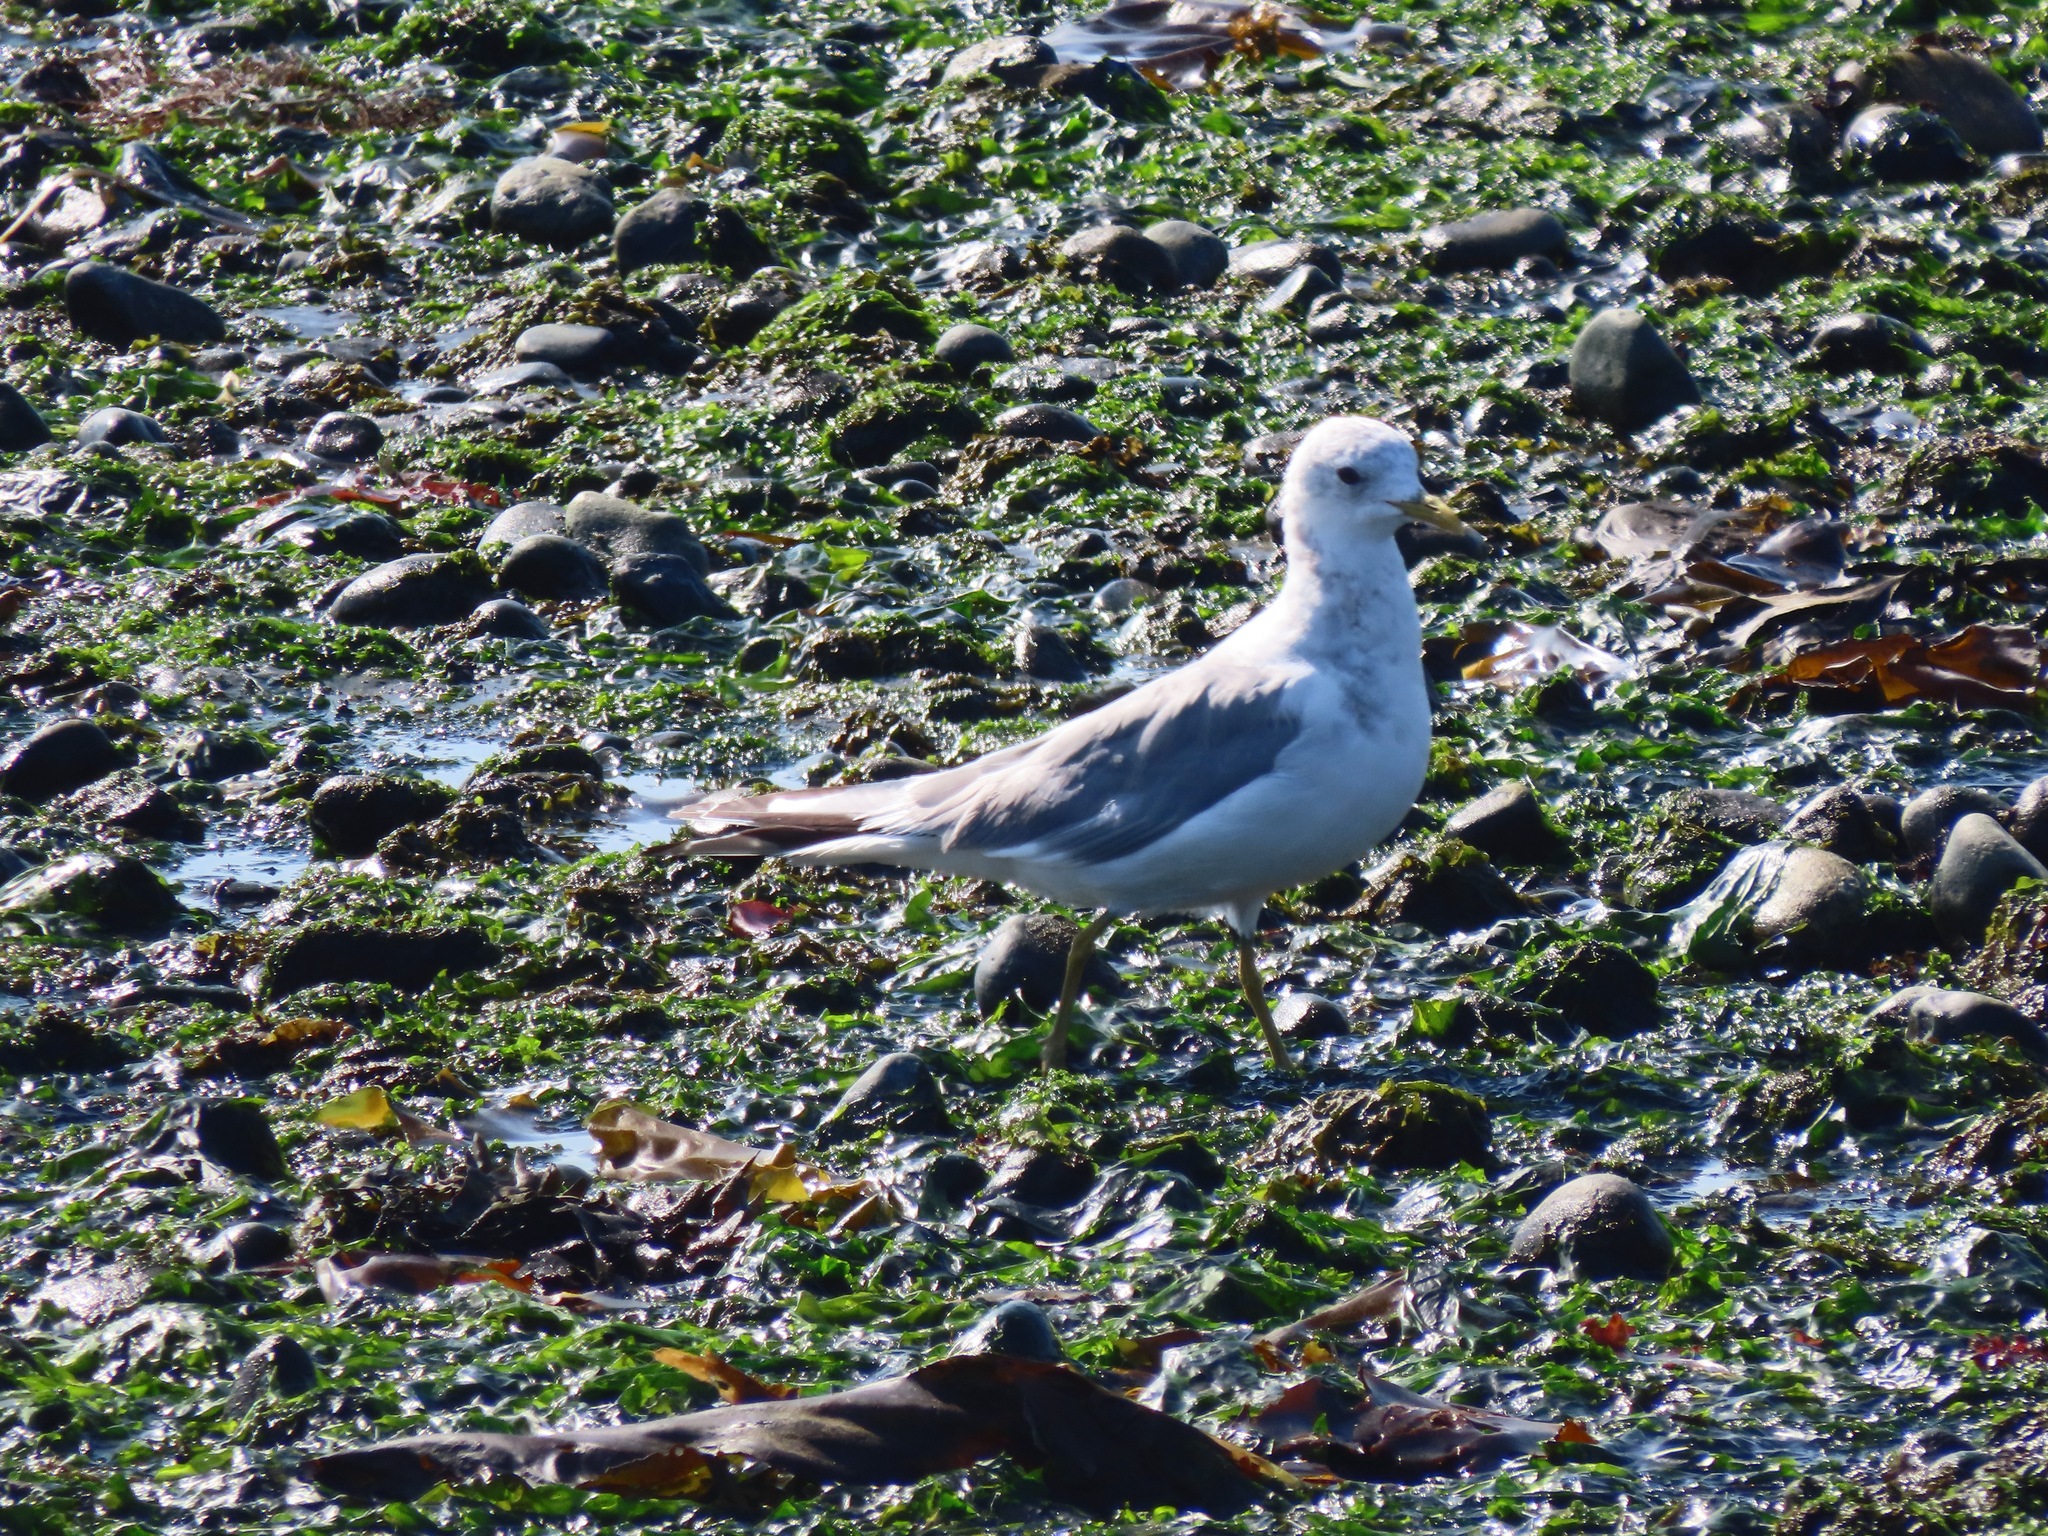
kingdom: Animalia
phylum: Chordata
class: Aves
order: Charadriiformes
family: Laridae
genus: Larus
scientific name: Larus brachyrhynchus
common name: Short-billed gull
